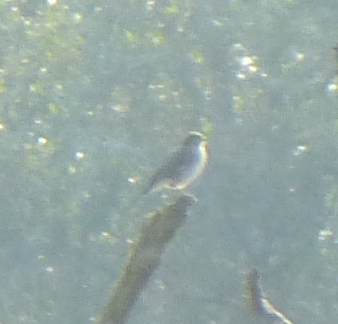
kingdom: Animalia
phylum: Chordata
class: Aves
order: Passeriformes
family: Motacillidae
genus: Motacilla
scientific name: Motacilla alba
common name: White wagtail
